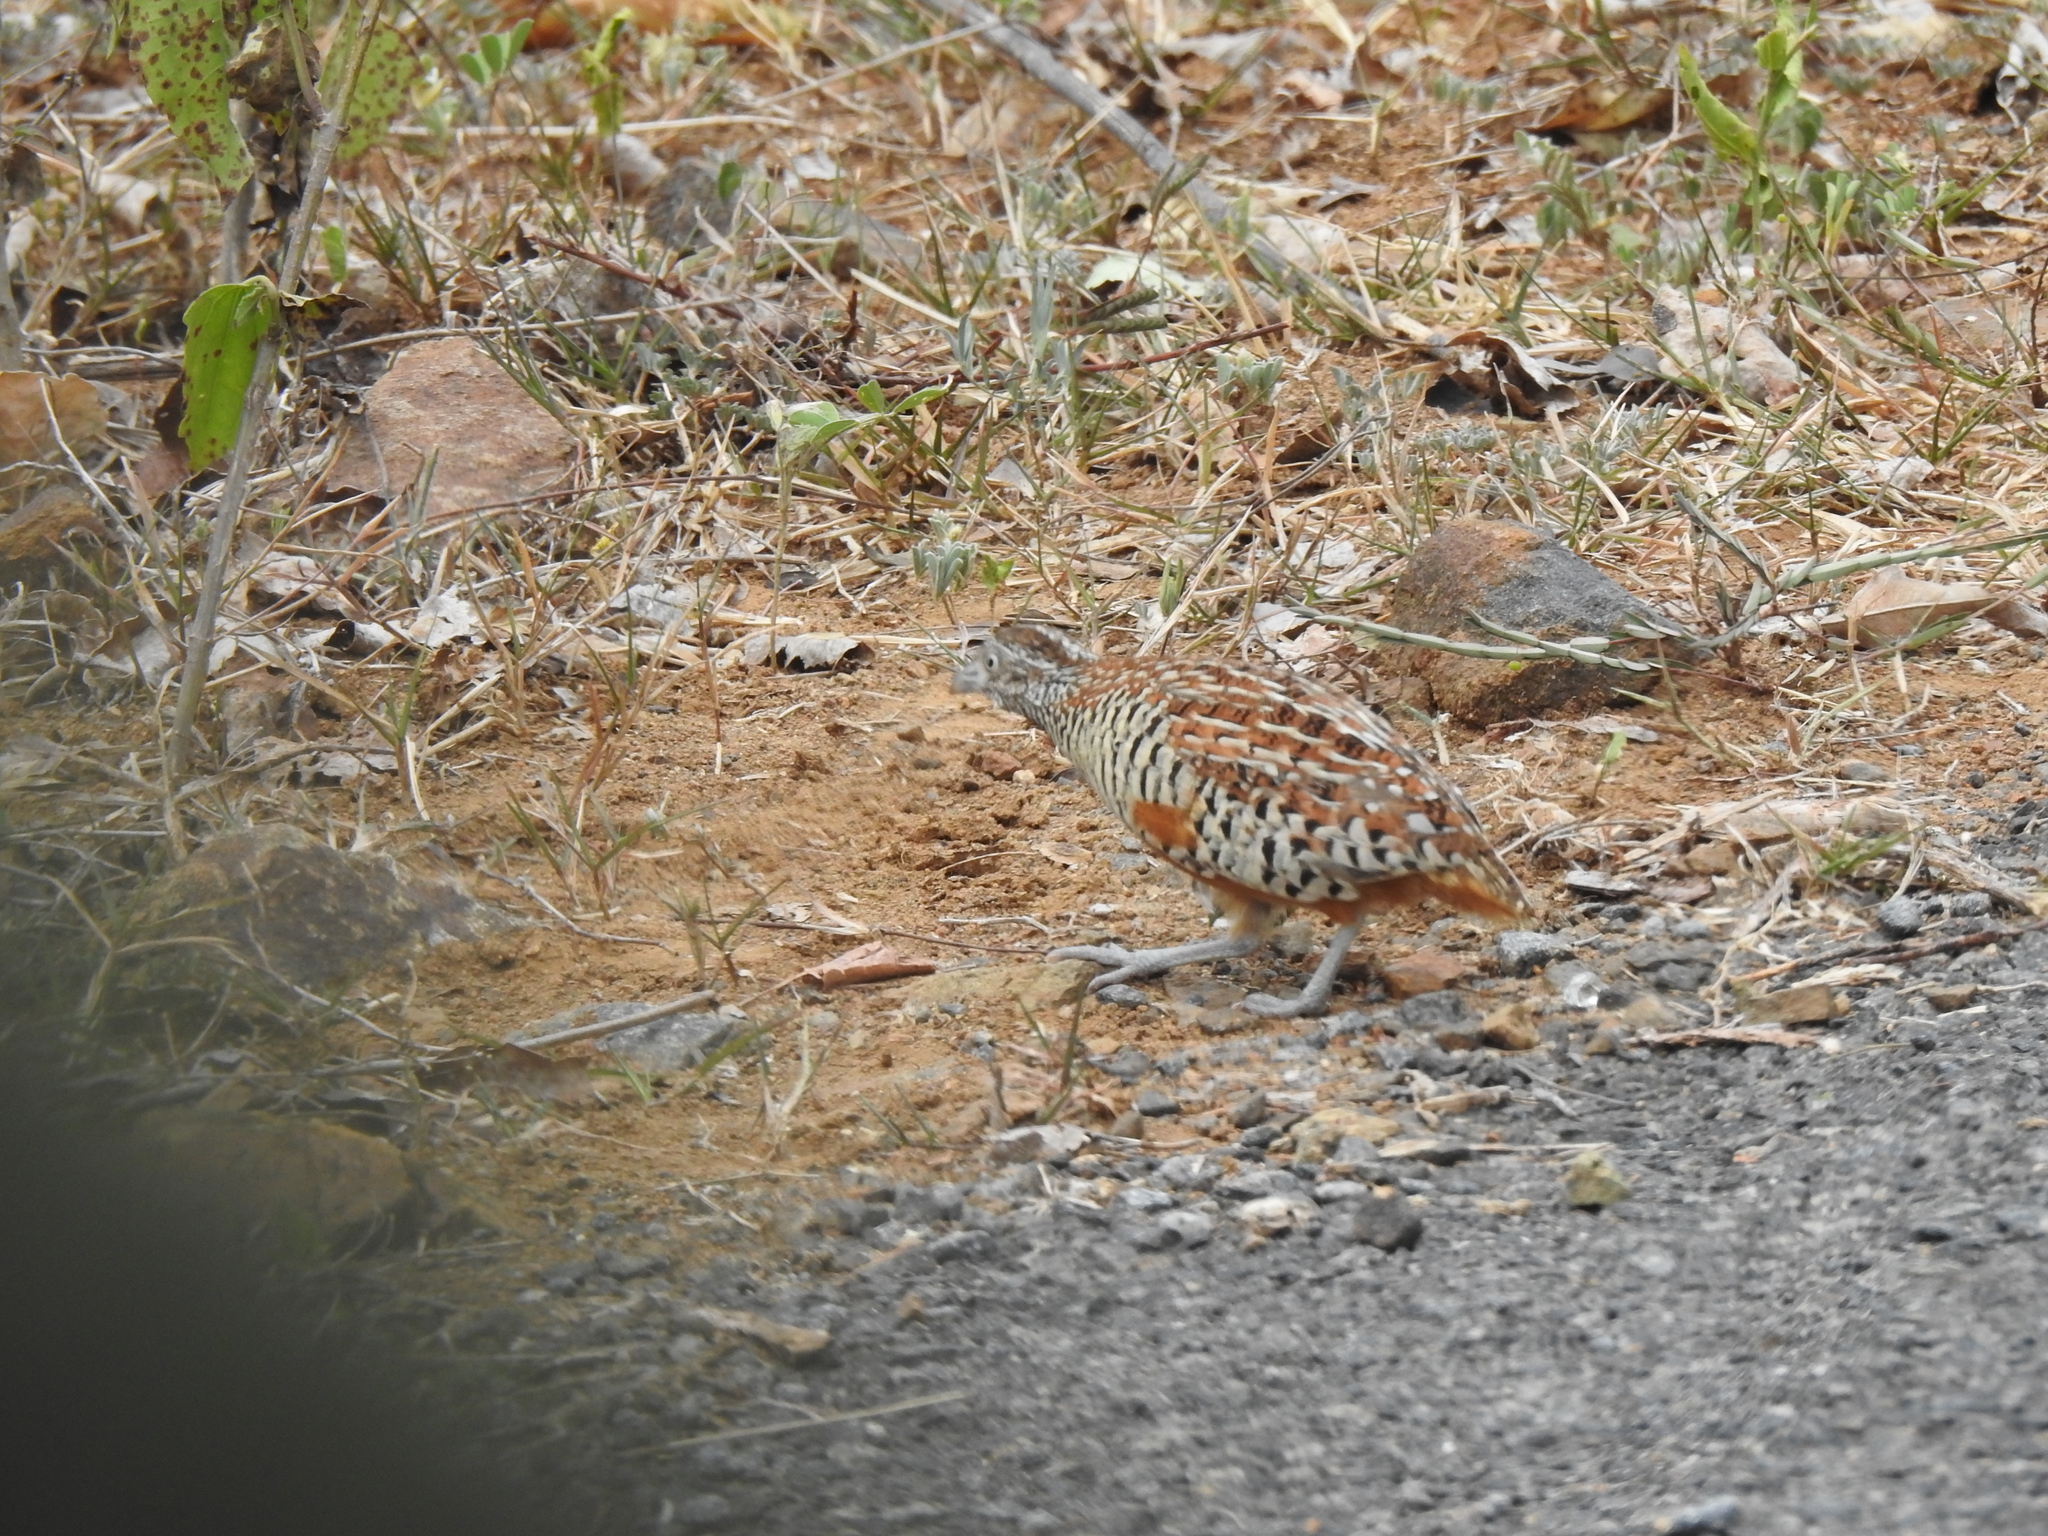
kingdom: Animalia
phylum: Chordata
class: Aves
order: Charadriiformes
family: Turnicidae
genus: Turnix
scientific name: Turnix suscitator
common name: Barred buttonquail
